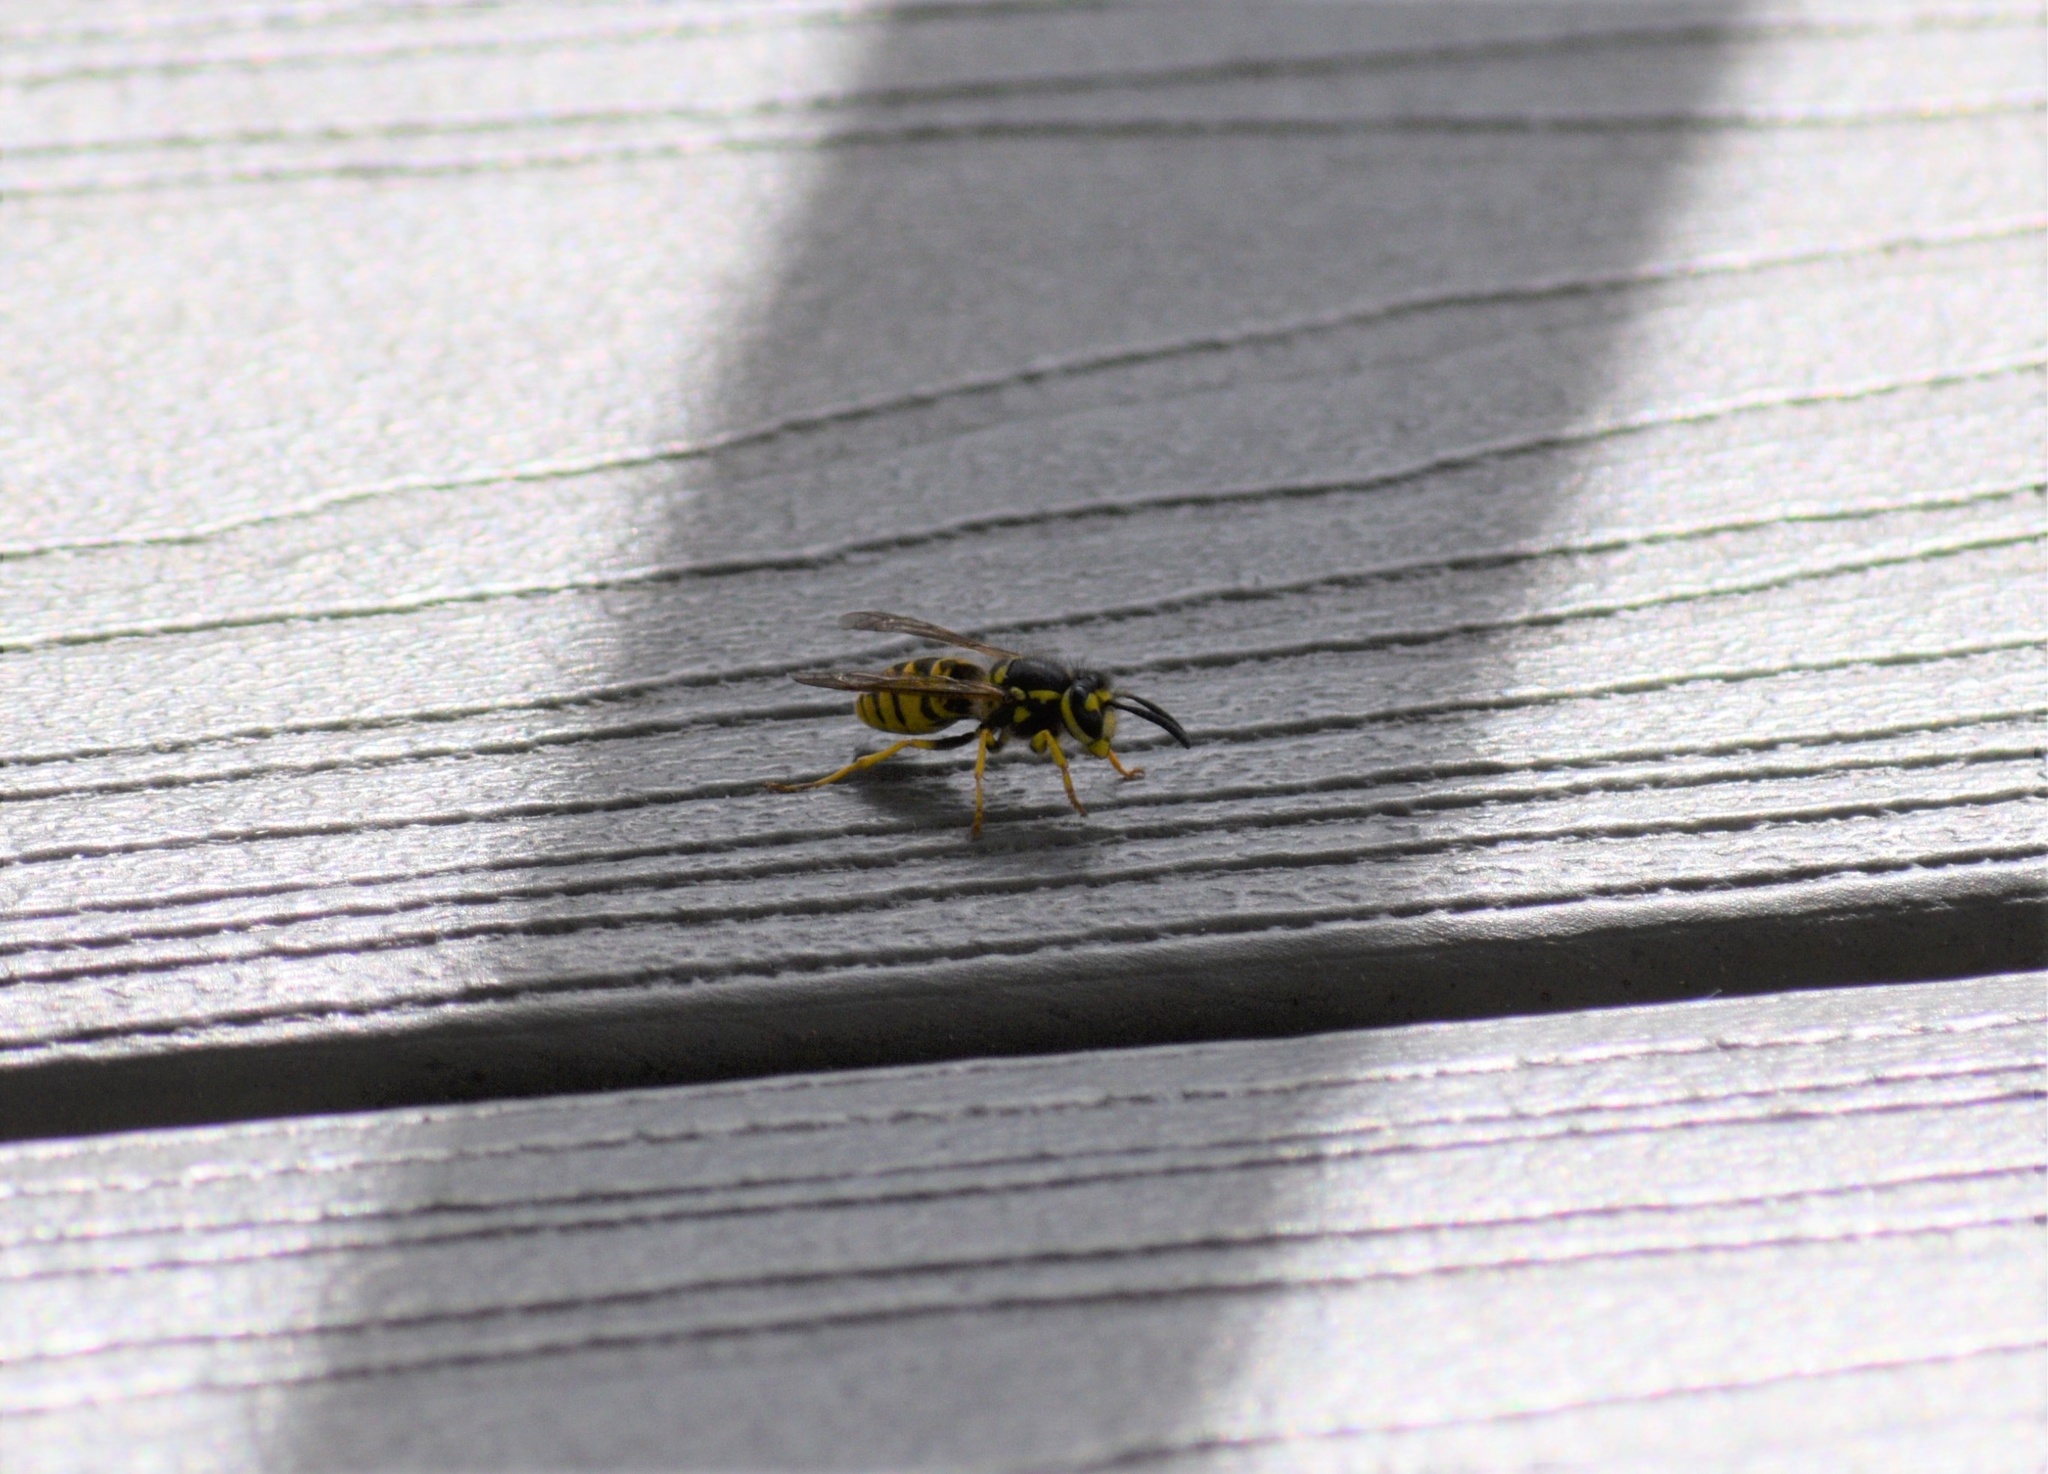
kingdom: Animalia
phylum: Arthropoda
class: Insecta
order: Hymenoptera
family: Vespidae
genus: Vespula
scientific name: Vespula germanica
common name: German wasp
